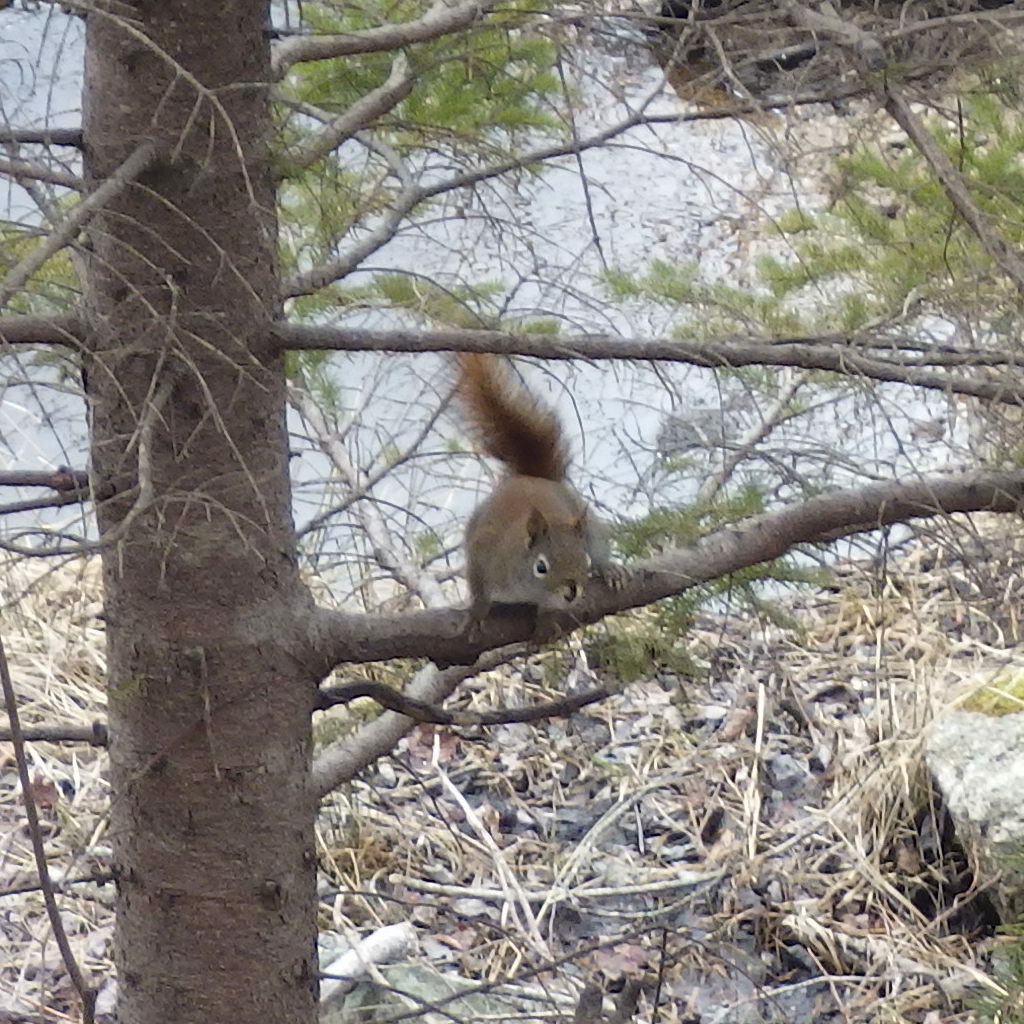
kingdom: Animalia
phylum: Chordata
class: Mammalia
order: Rodentia
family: Sciuridae
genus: Tamiasciurus
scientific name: Tamiasciurus hudsonicus
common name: Red squirrel
